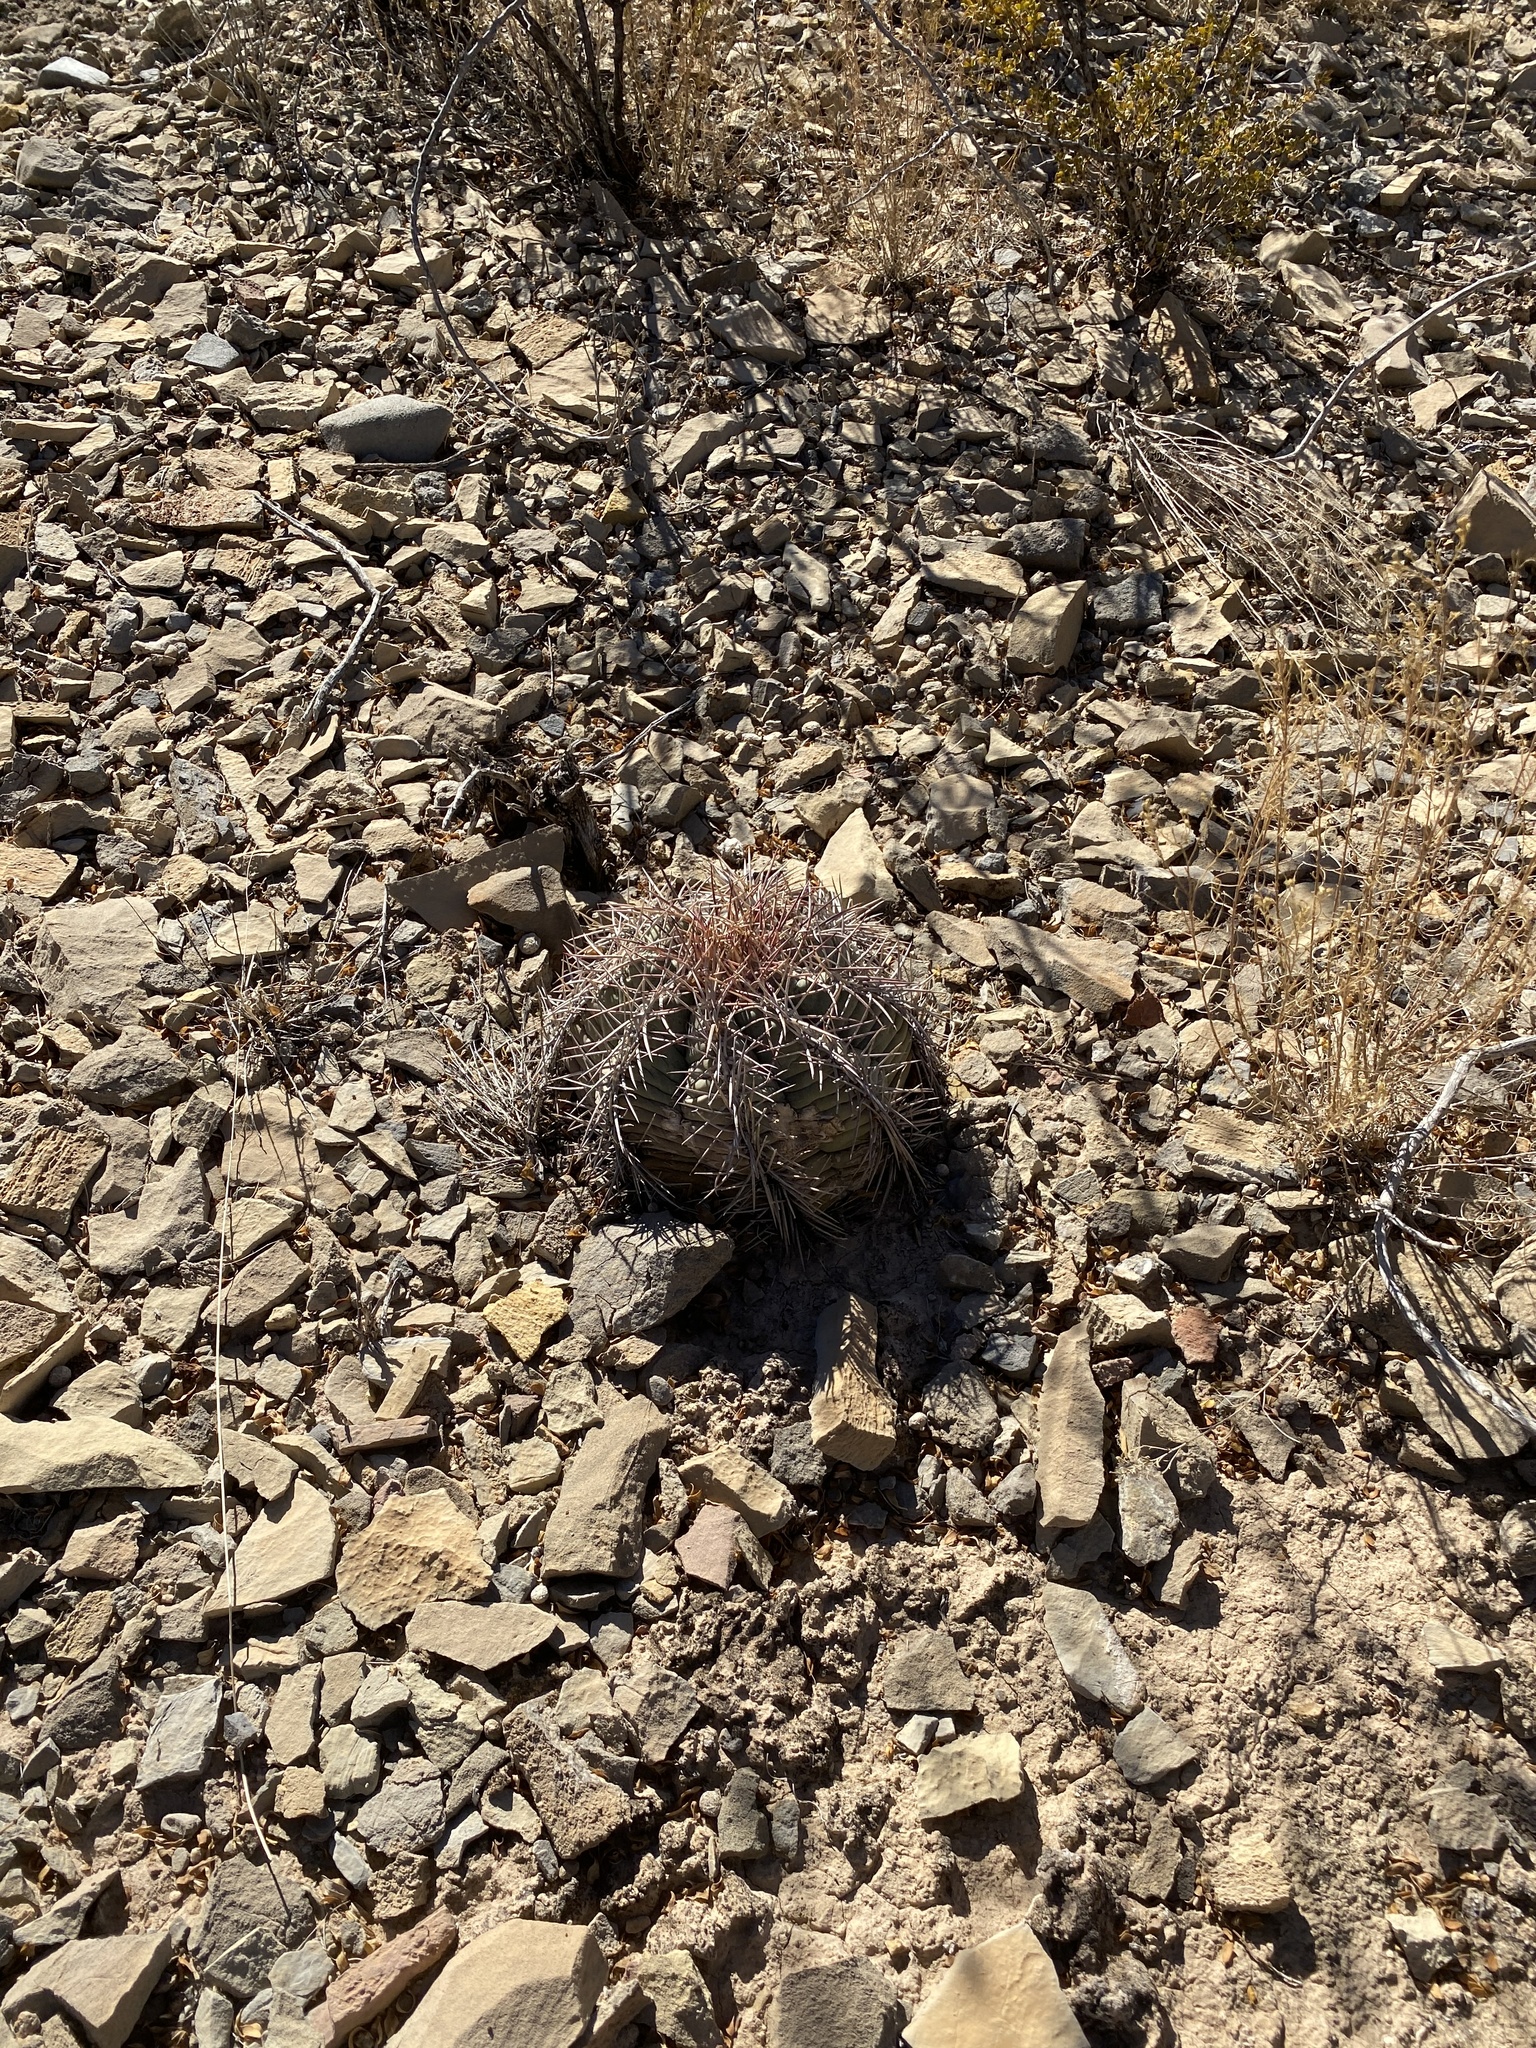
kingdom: Plantae
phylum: Tracheophyta
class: Magnoliopsida
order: Caryophyllales
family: Cactaceae
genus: Echinocactus
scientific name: Echinocactus horizonthalonius
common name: Devilshead
